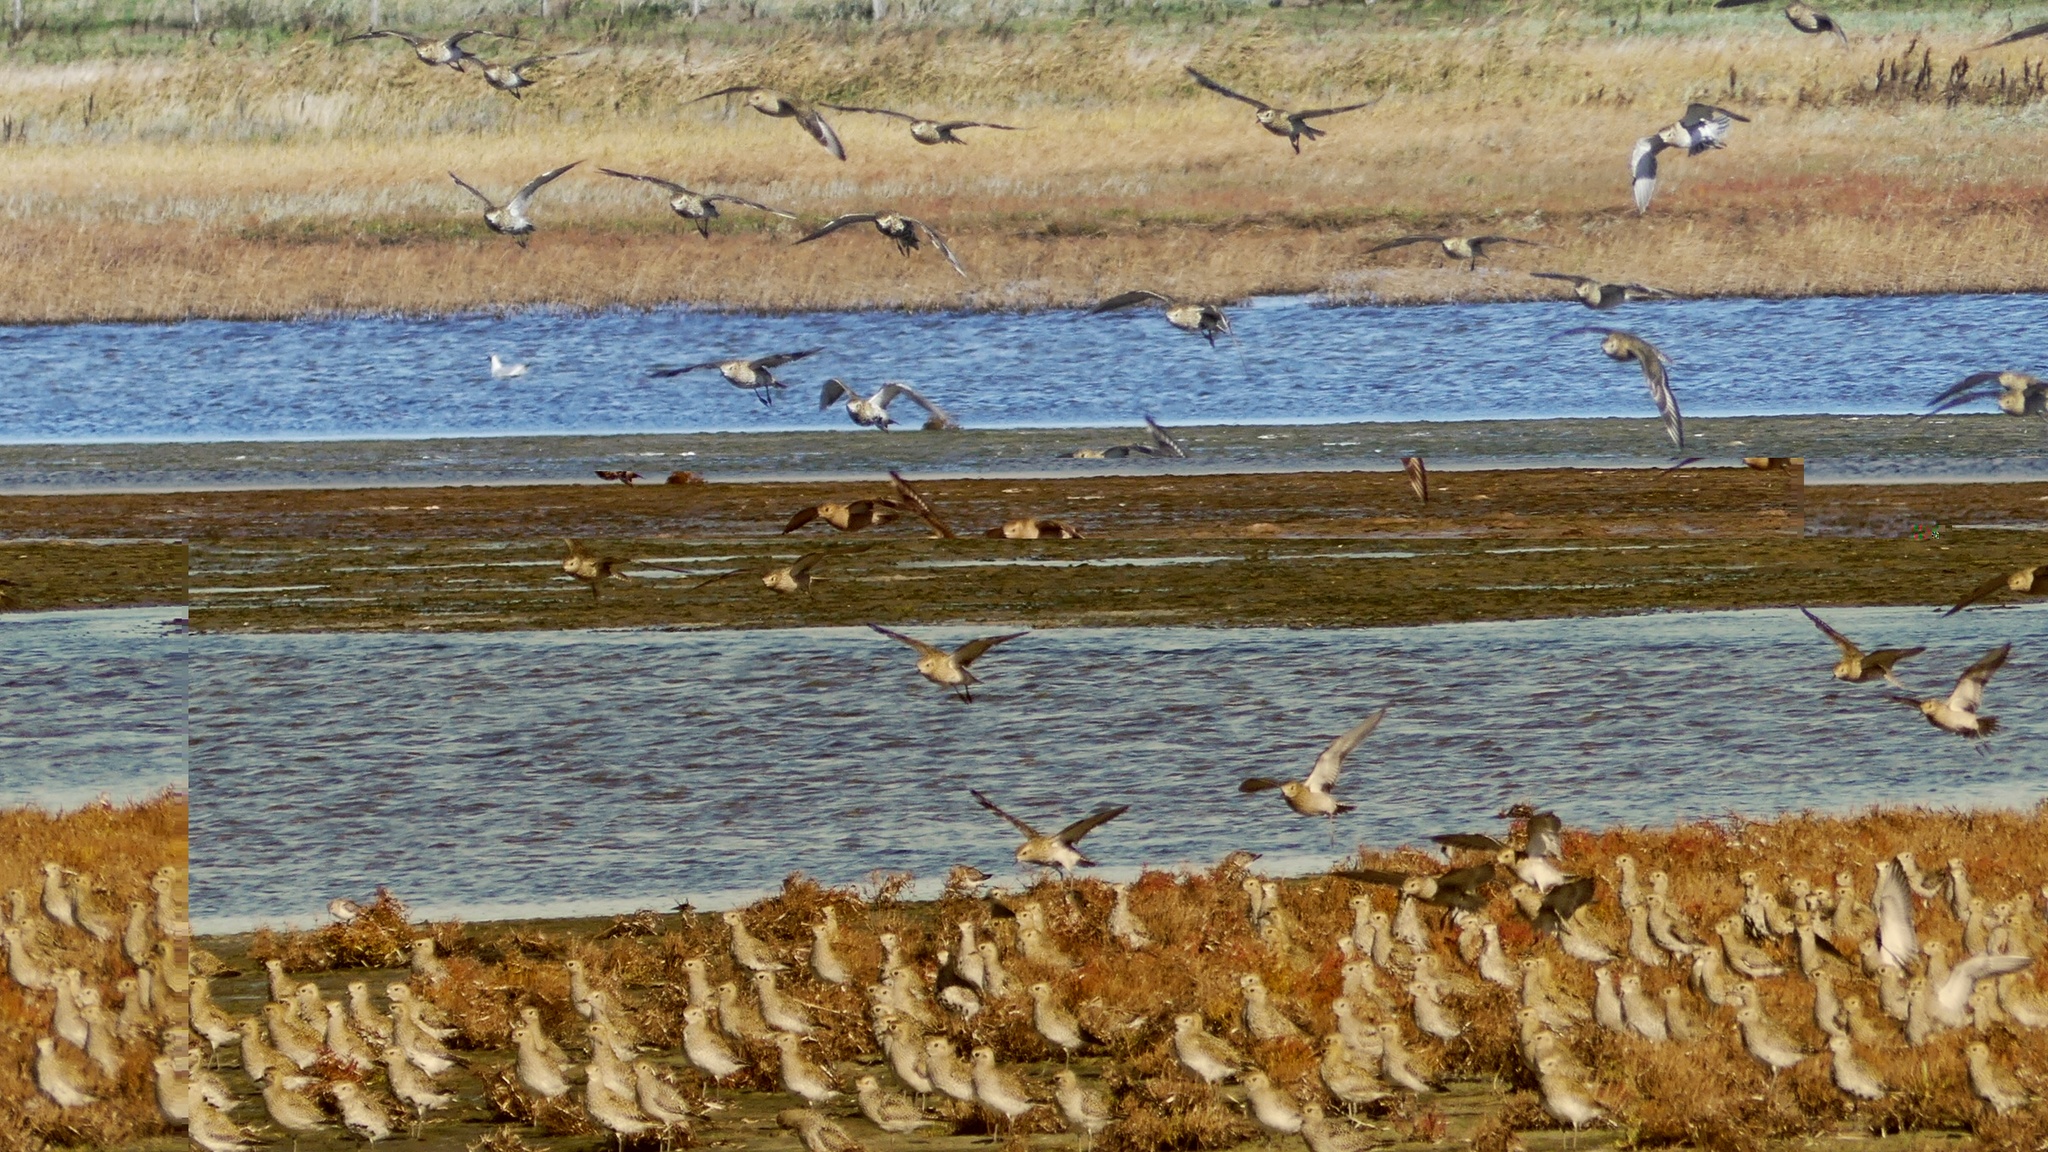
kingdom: Animalia
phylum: Chordata
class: Aves
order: Charadriiformes
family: Charadriidae
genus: Pluvialis
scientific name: Pluvialis apricaria
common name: European golden plover
